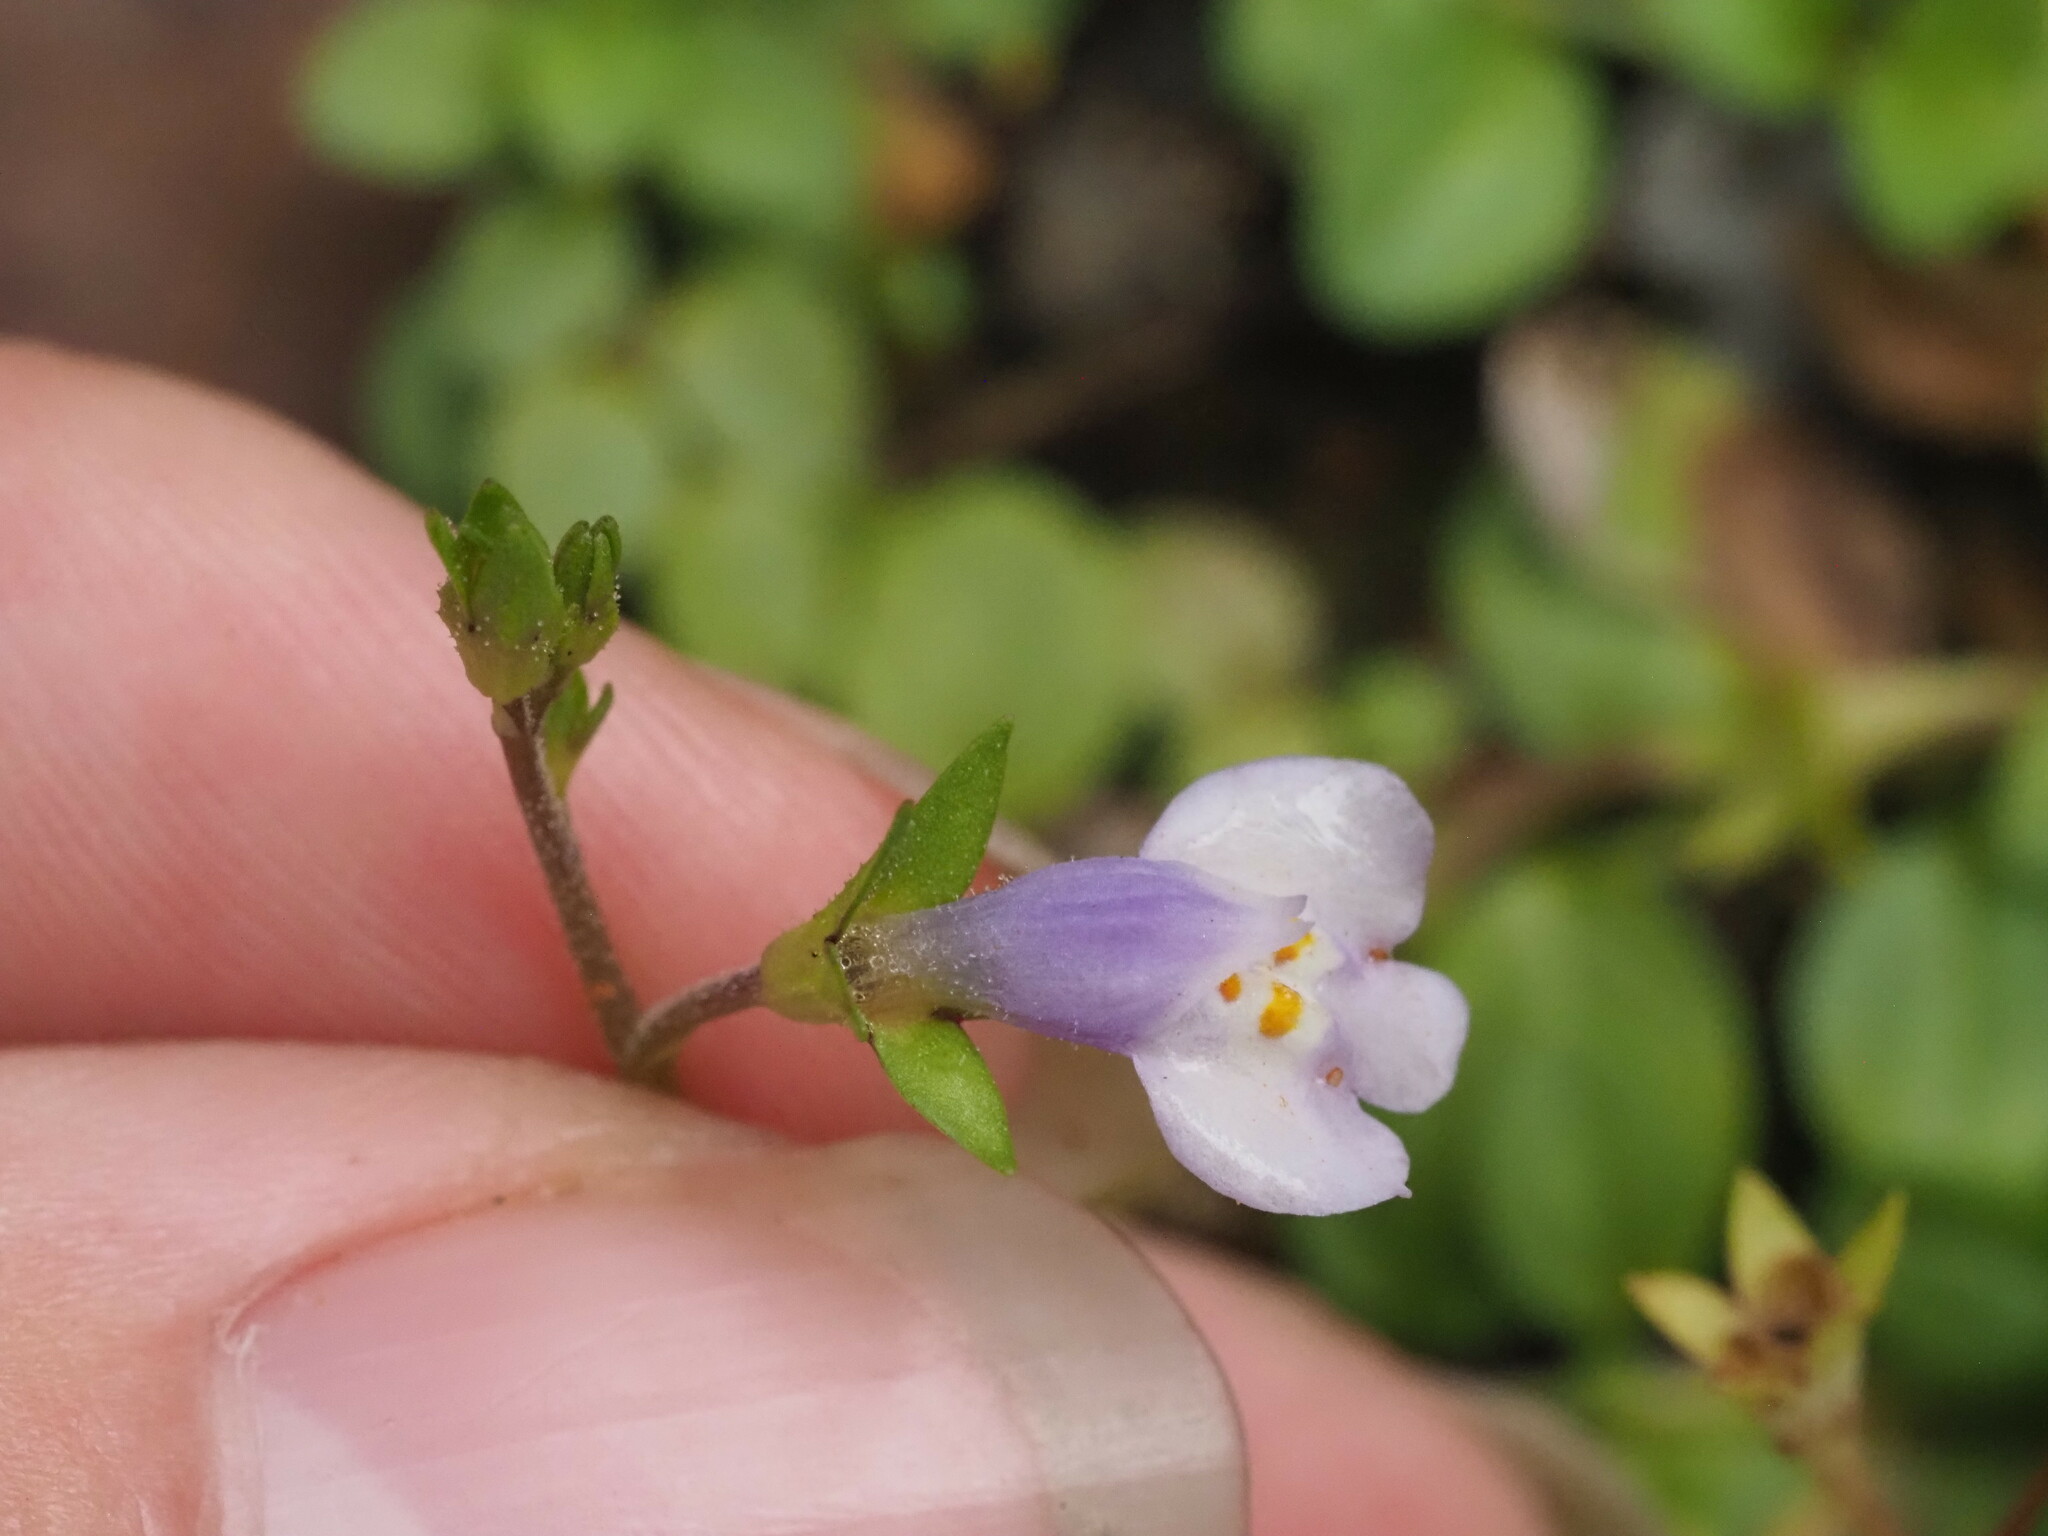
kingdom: Plantae
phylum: Tracheophyta
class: Magnoliopsida
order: Lamiales
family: Mazaceae
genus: Mazus
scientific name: Mazus pumilus
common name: Japanese mazus
